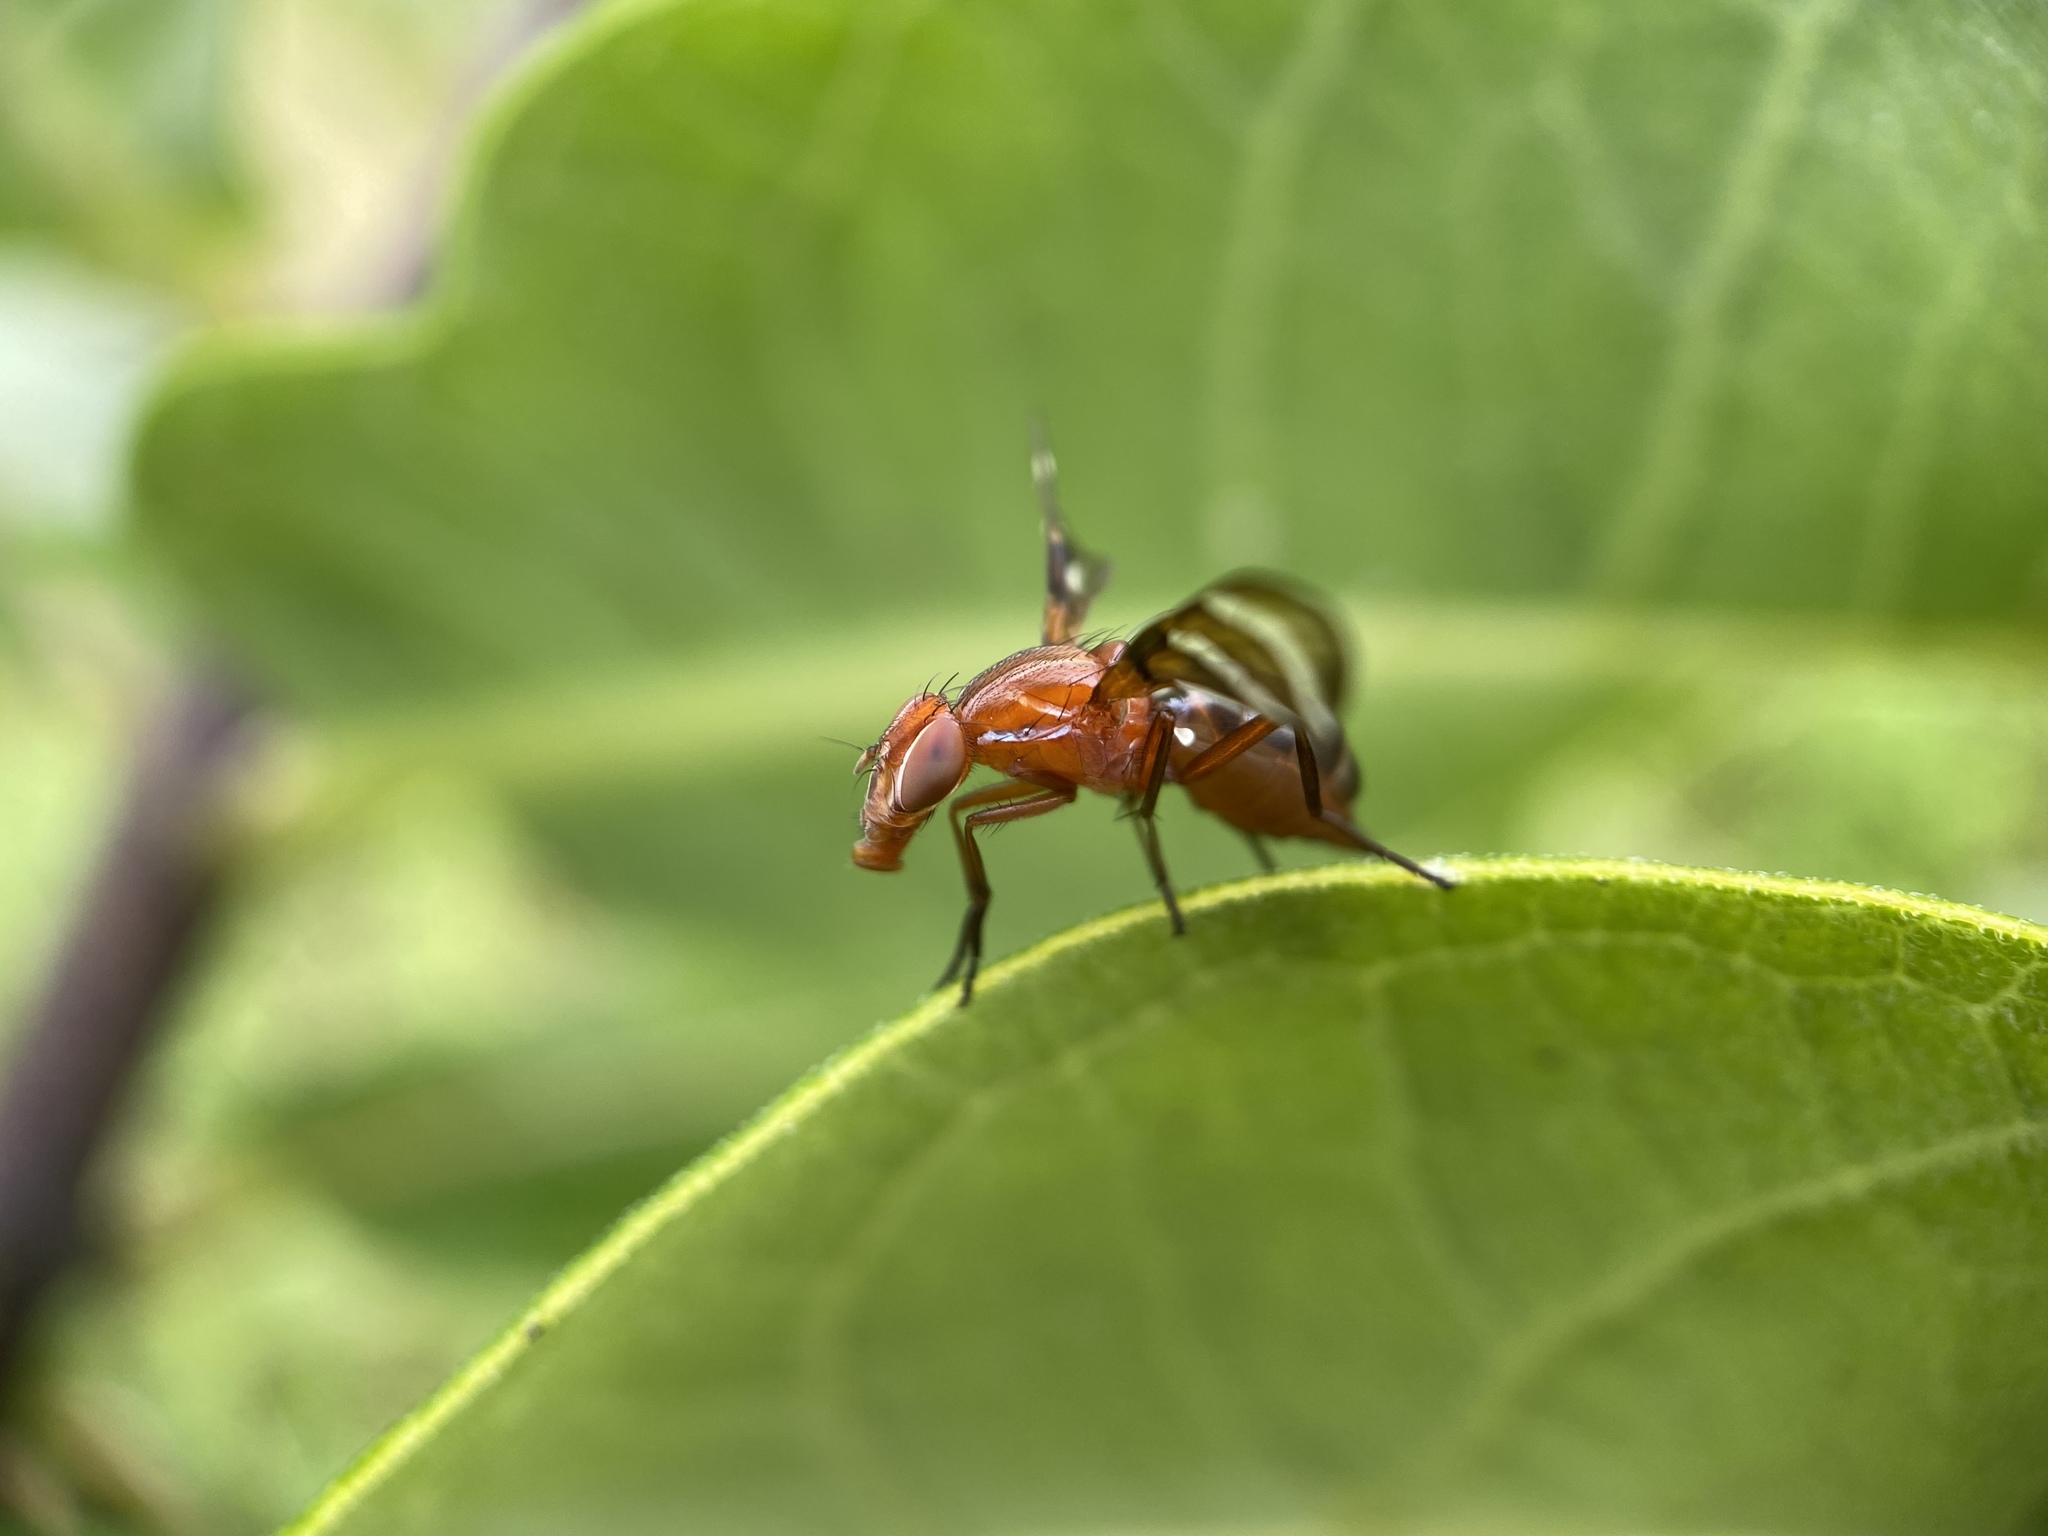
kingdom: Animalia
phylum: Arthropoda
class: Insecta
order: Diptera
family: Ulidiidae
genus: Tritoxa
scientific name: Tritoxa incurva
